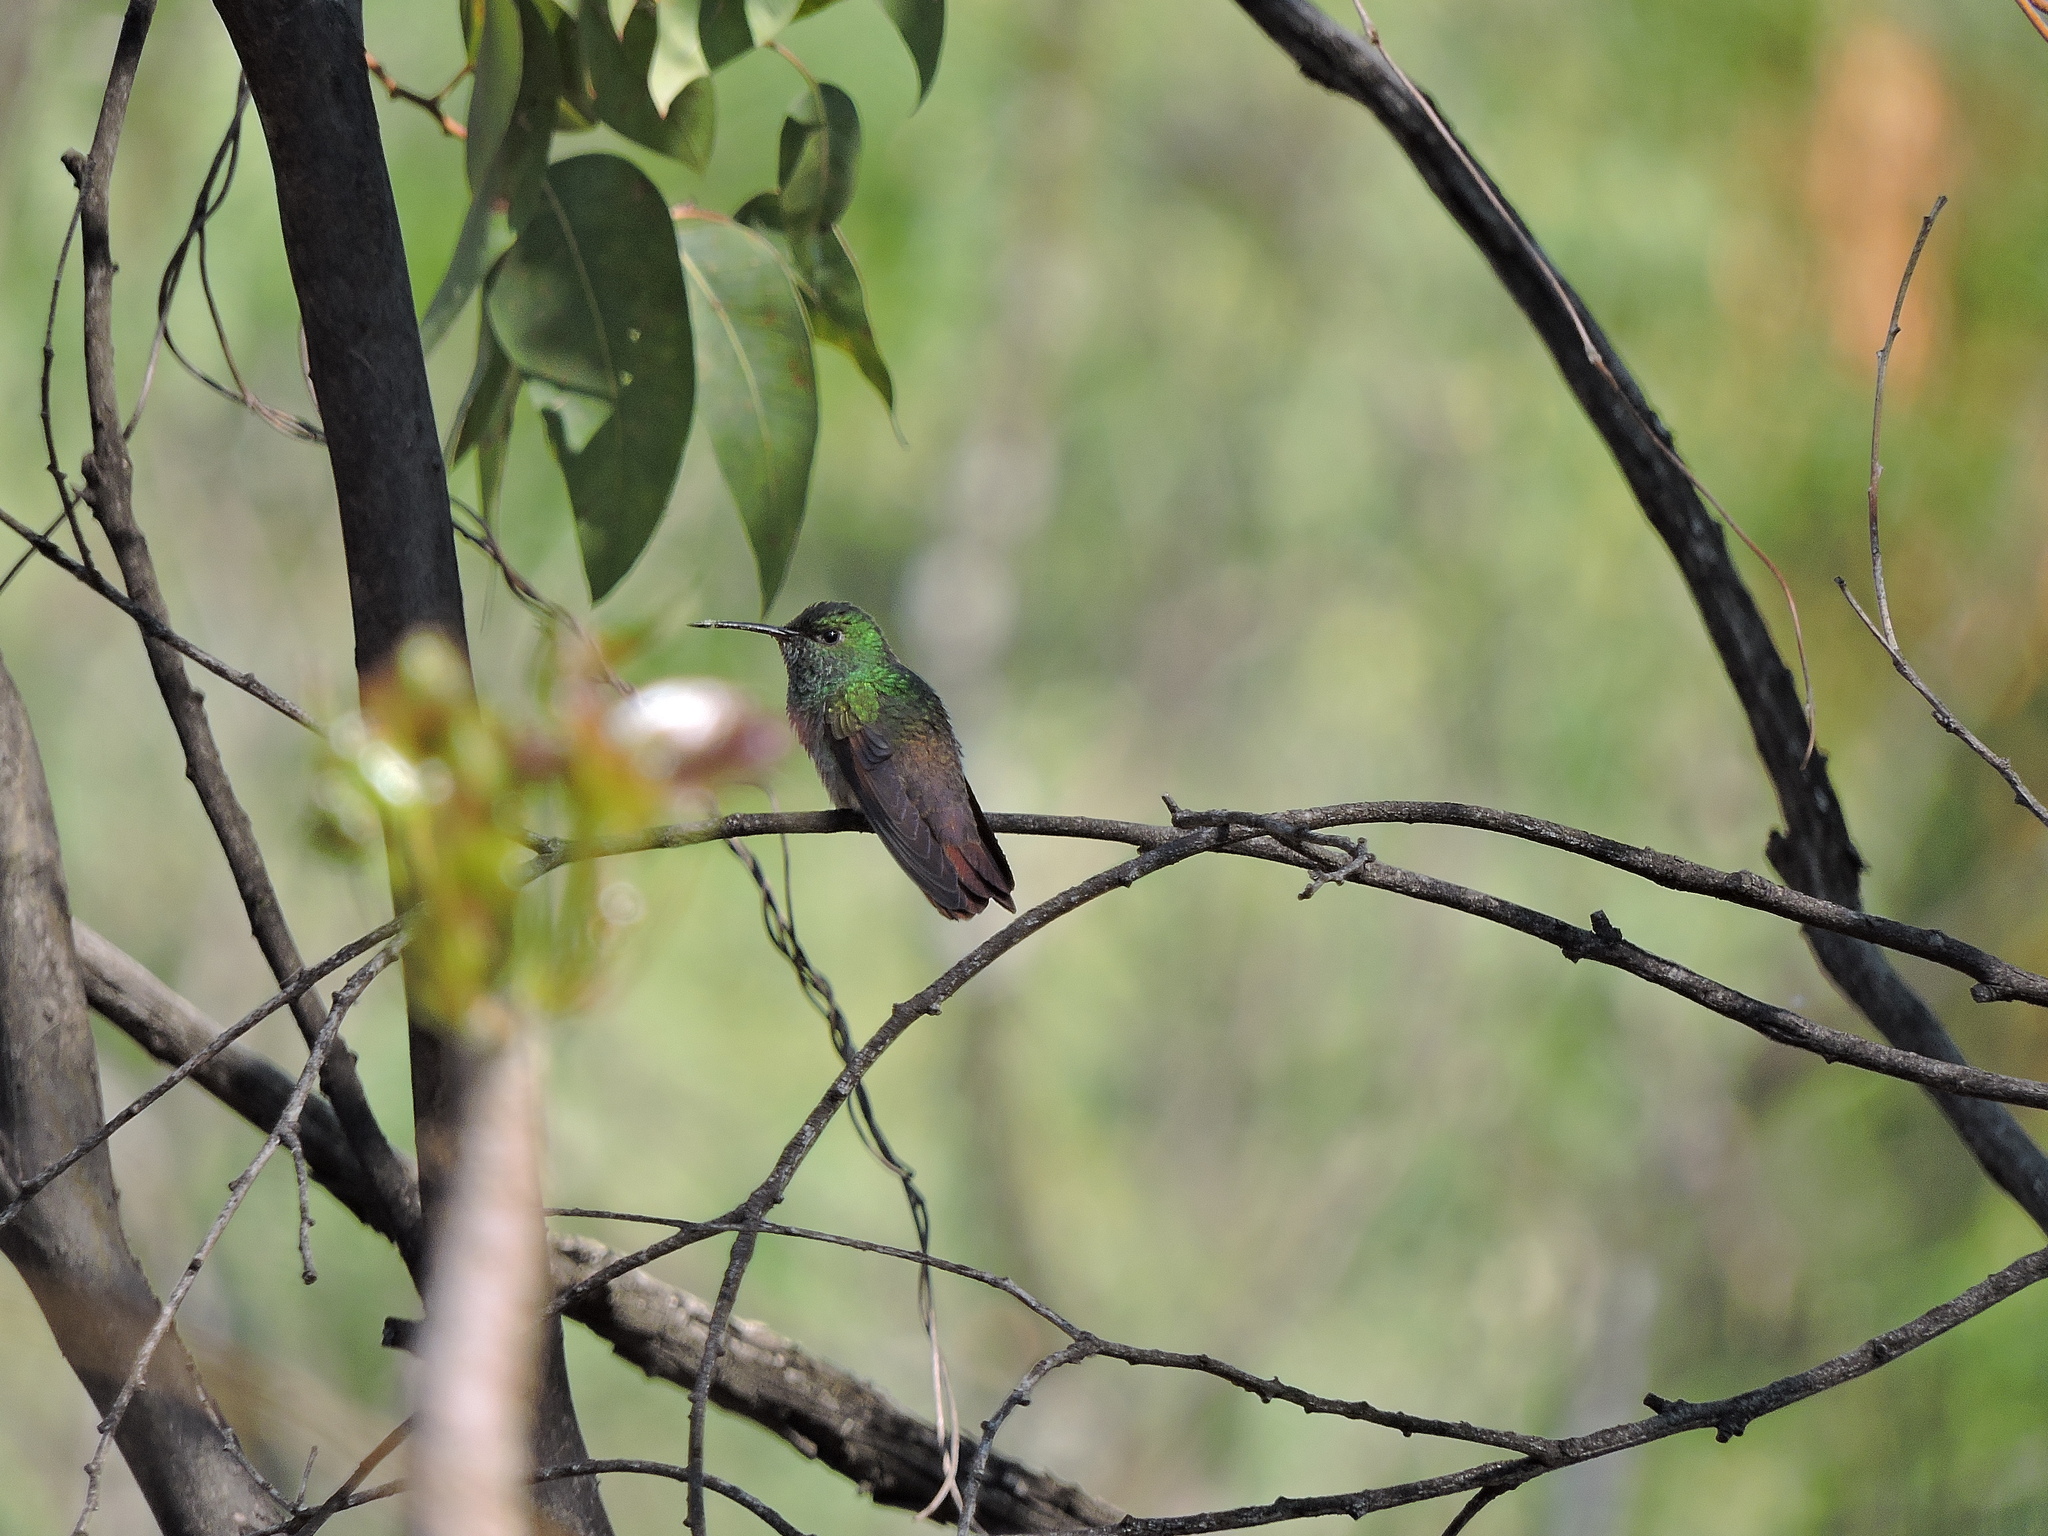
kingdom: Animalia
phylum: Chordata
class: Aves
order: Apodiformes
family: Trochilidae
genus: Saucerottia
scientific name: Saucerottia beryllina
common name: Berylline hummingbird
